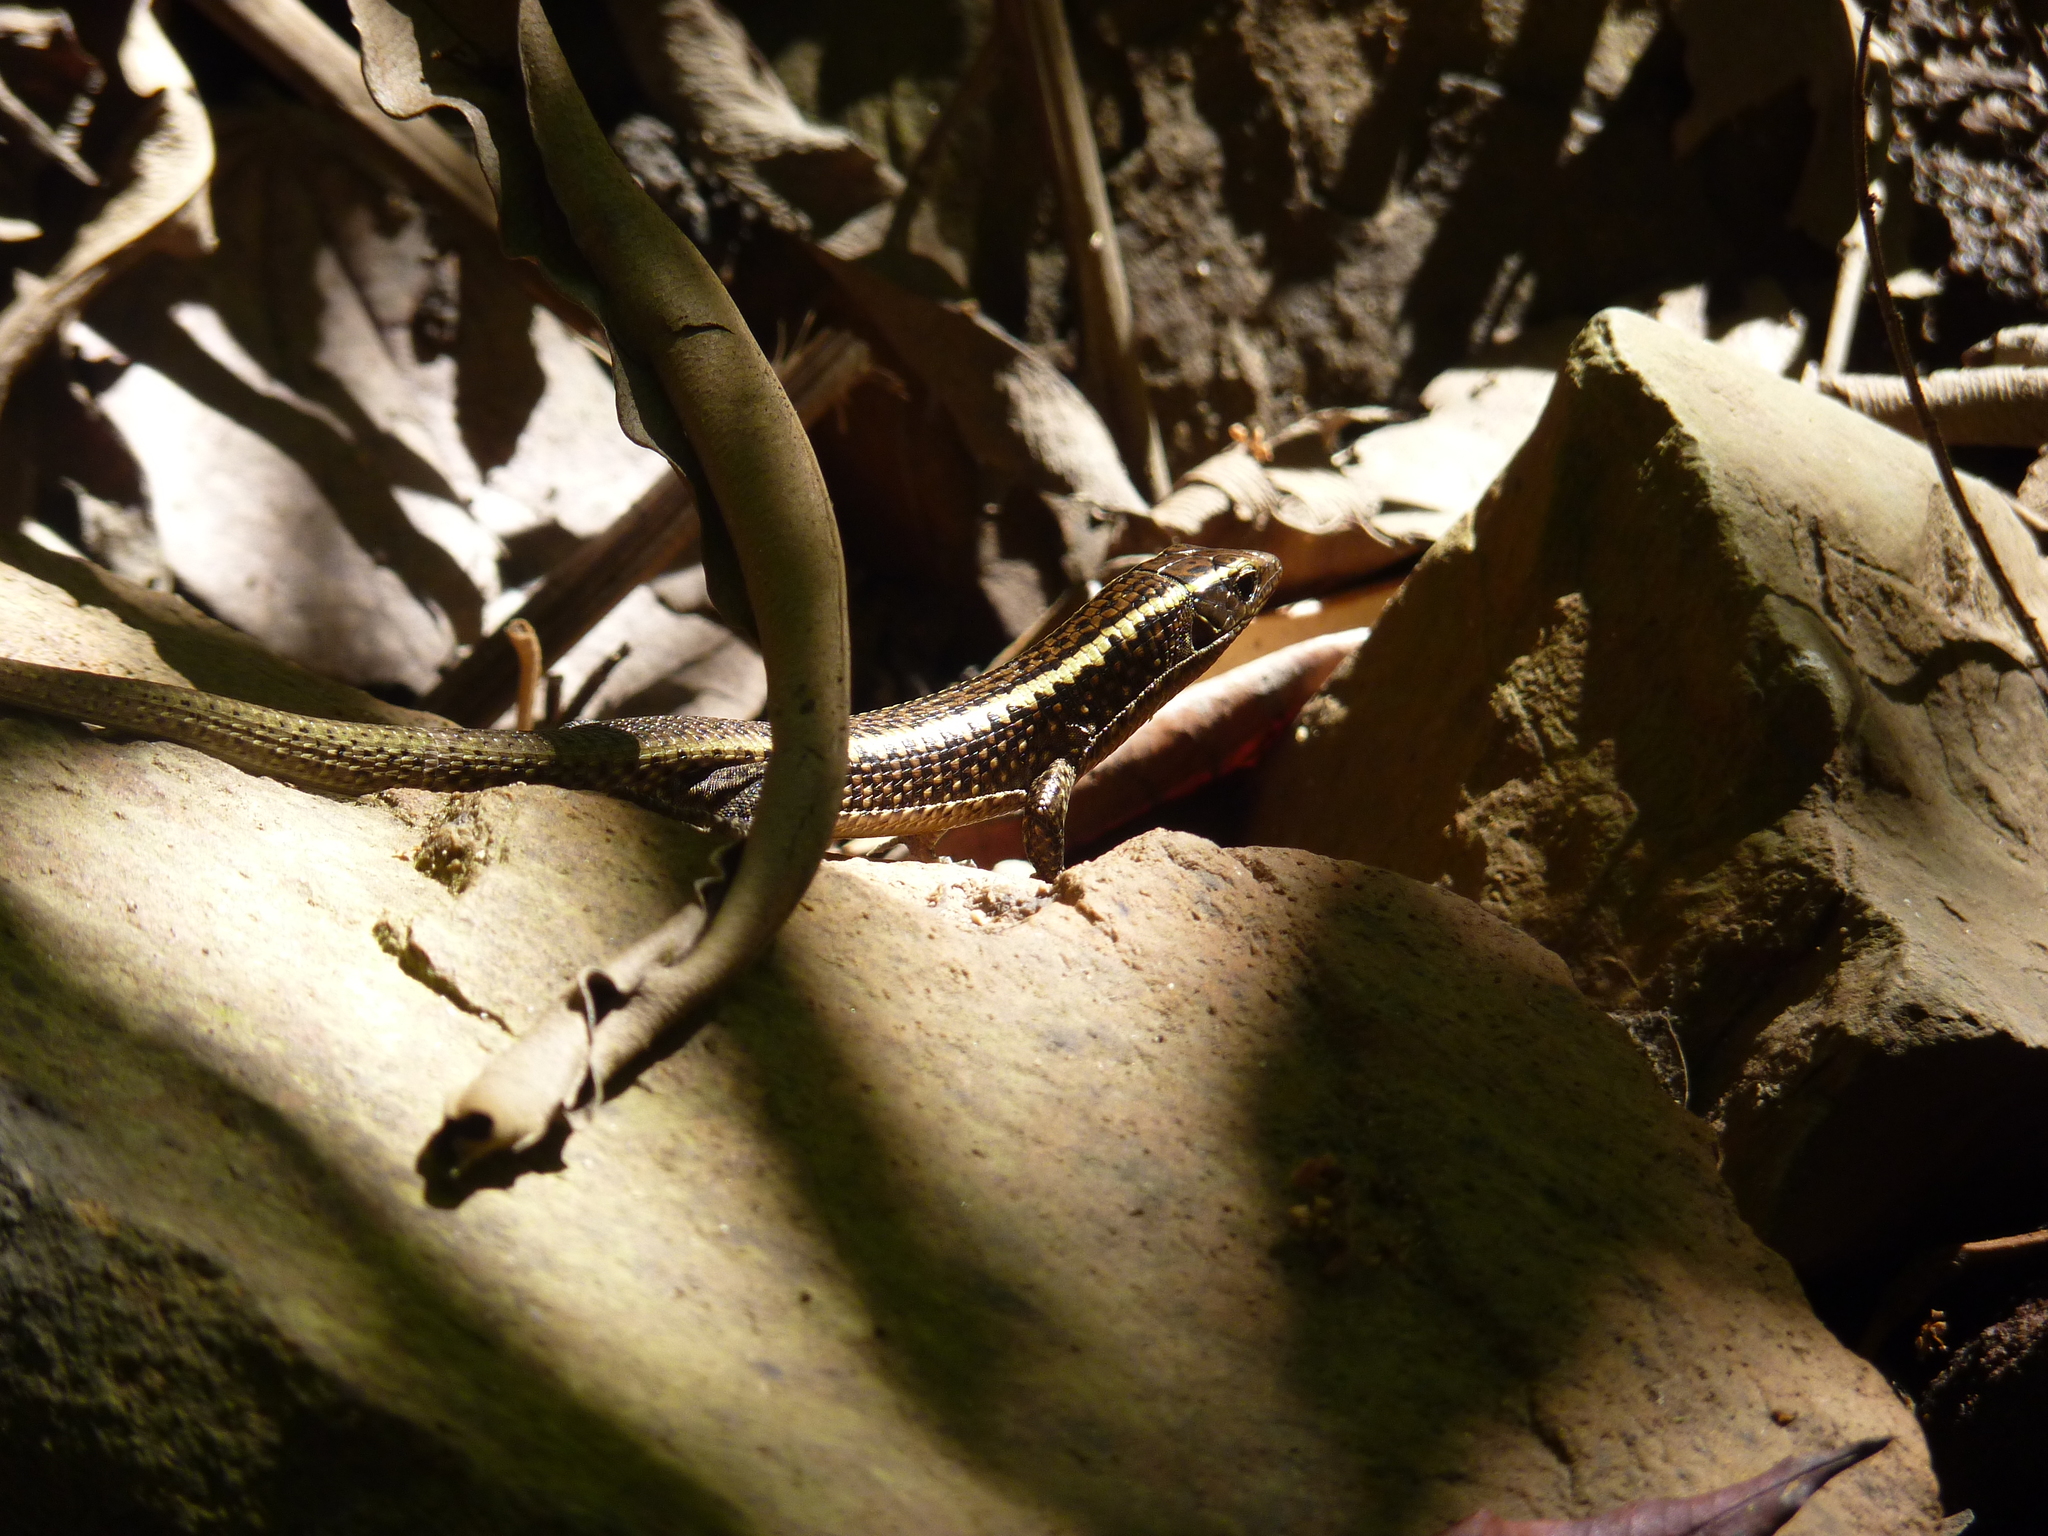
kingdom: Animalia
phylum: Chordata
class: Squamata
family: Gerrhosauridae
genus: Zonosaurus
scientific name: Zonosaurus madagascariensis
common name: Madagascar girdled lizard
